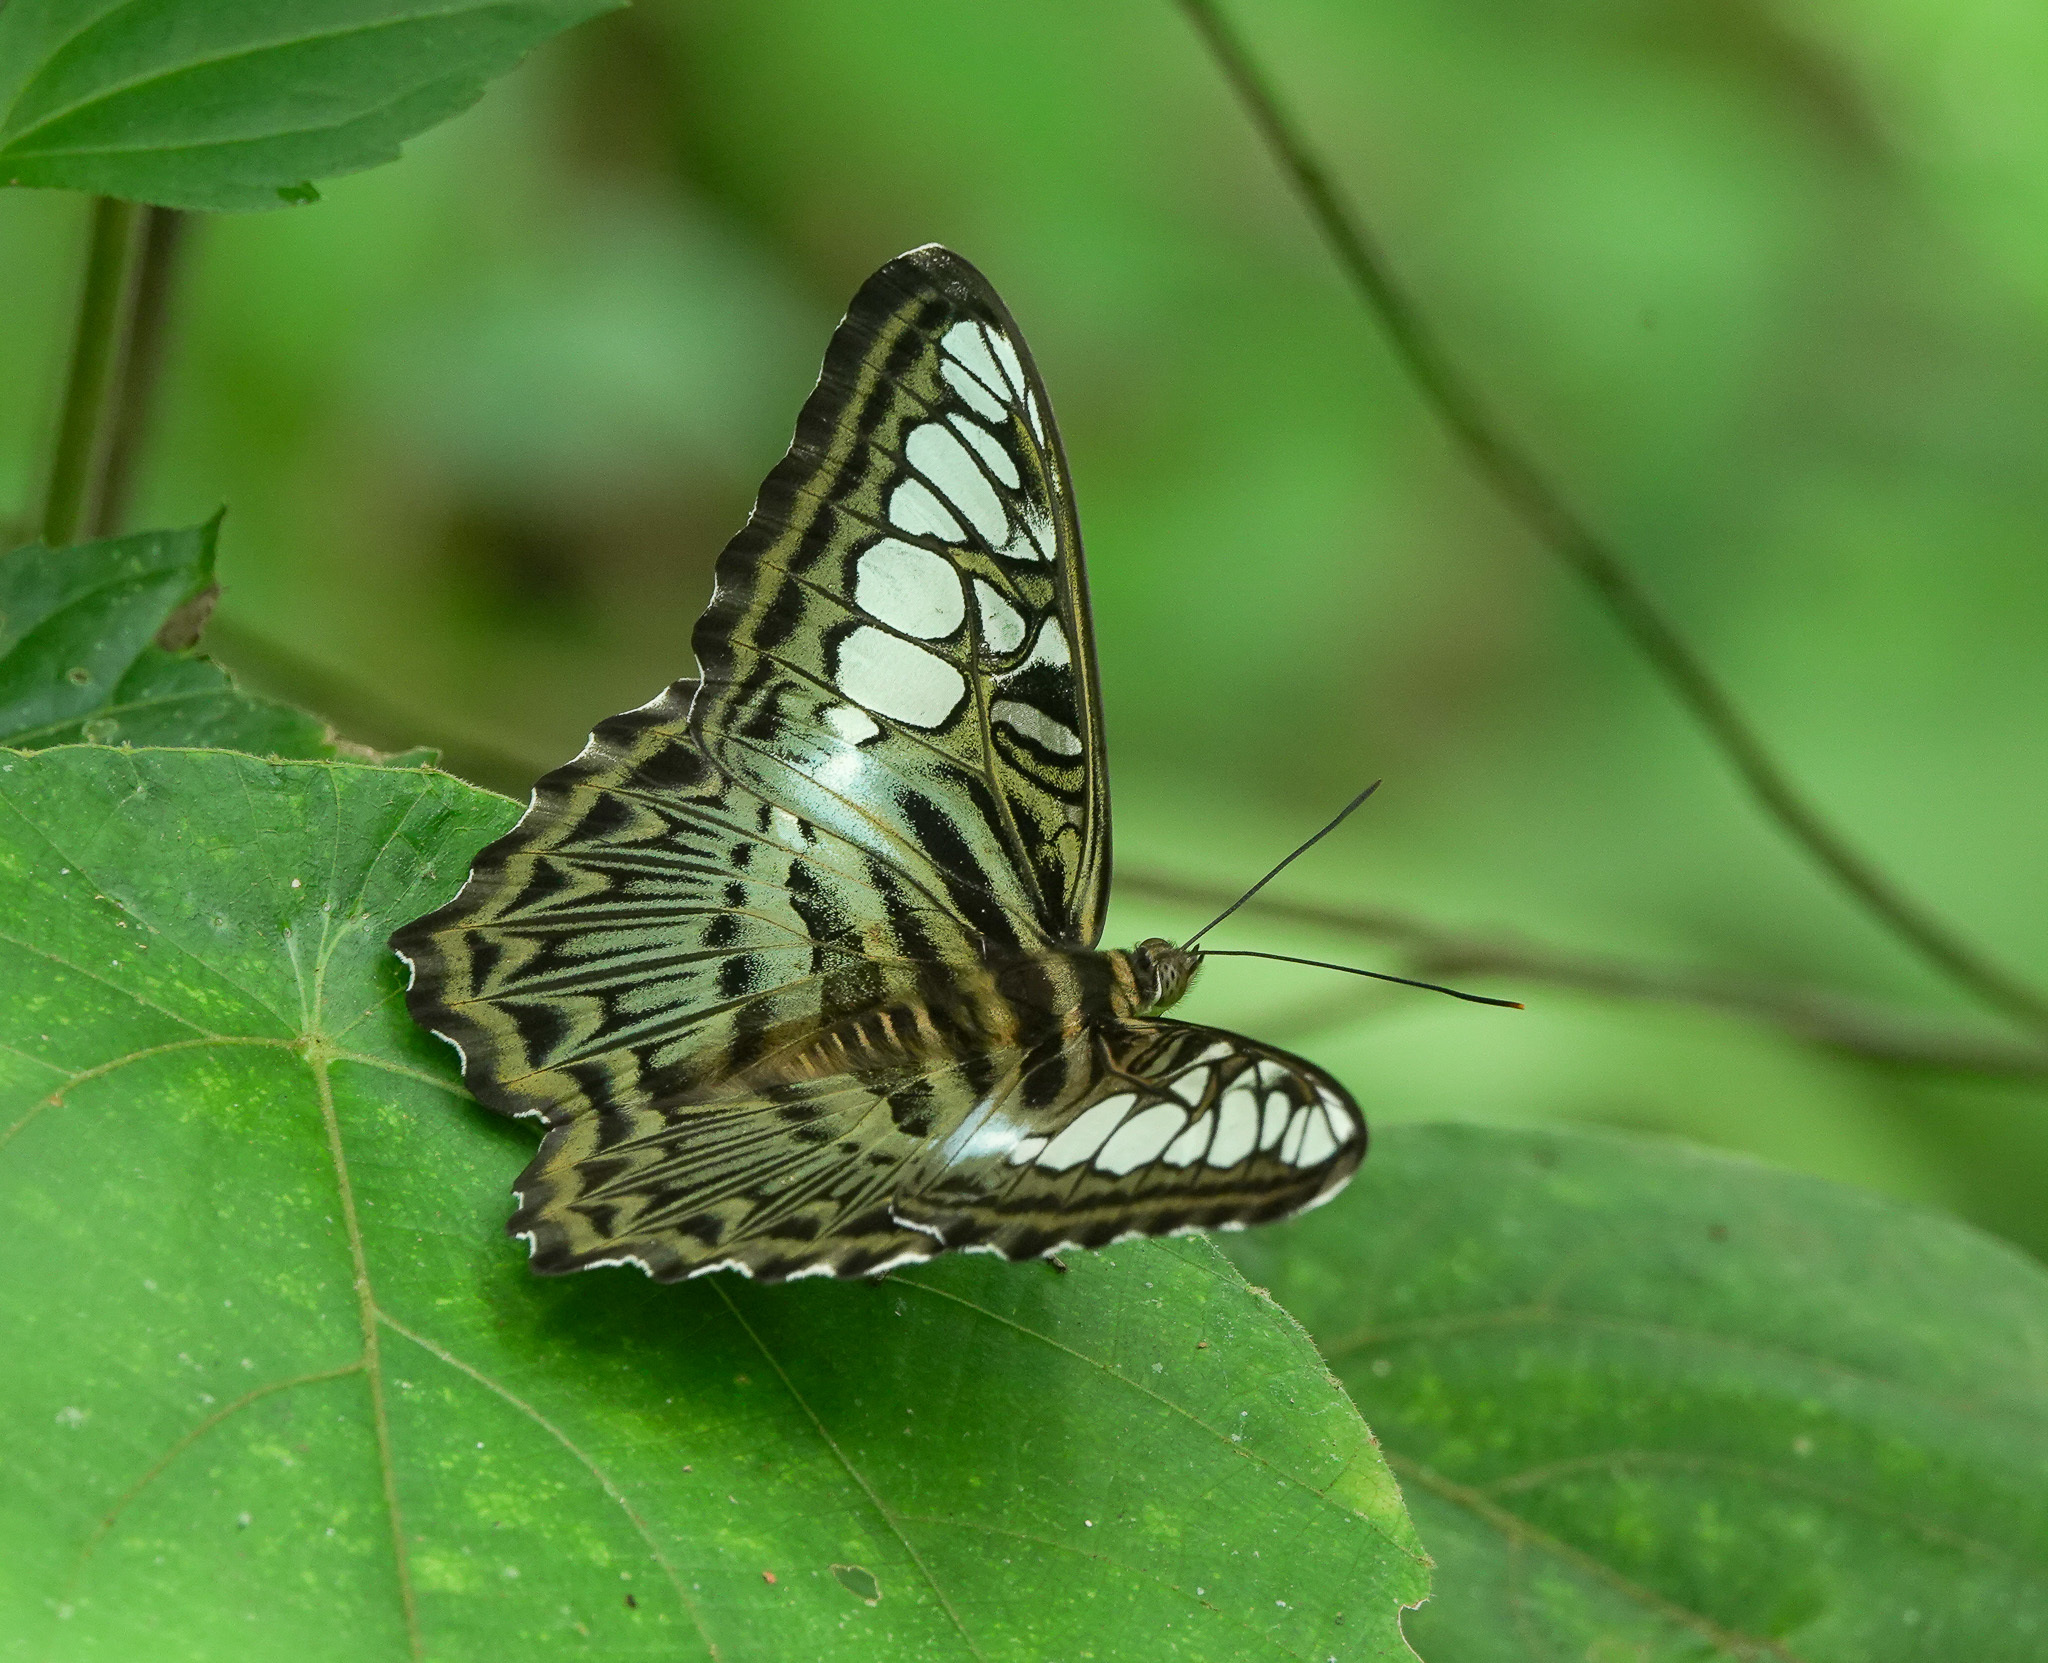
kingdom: Animalia
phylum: Arthropoda
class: Insecta
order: Lepidoptera
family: Nymphalidae
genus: Kallima
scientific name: Kallima sylvia
